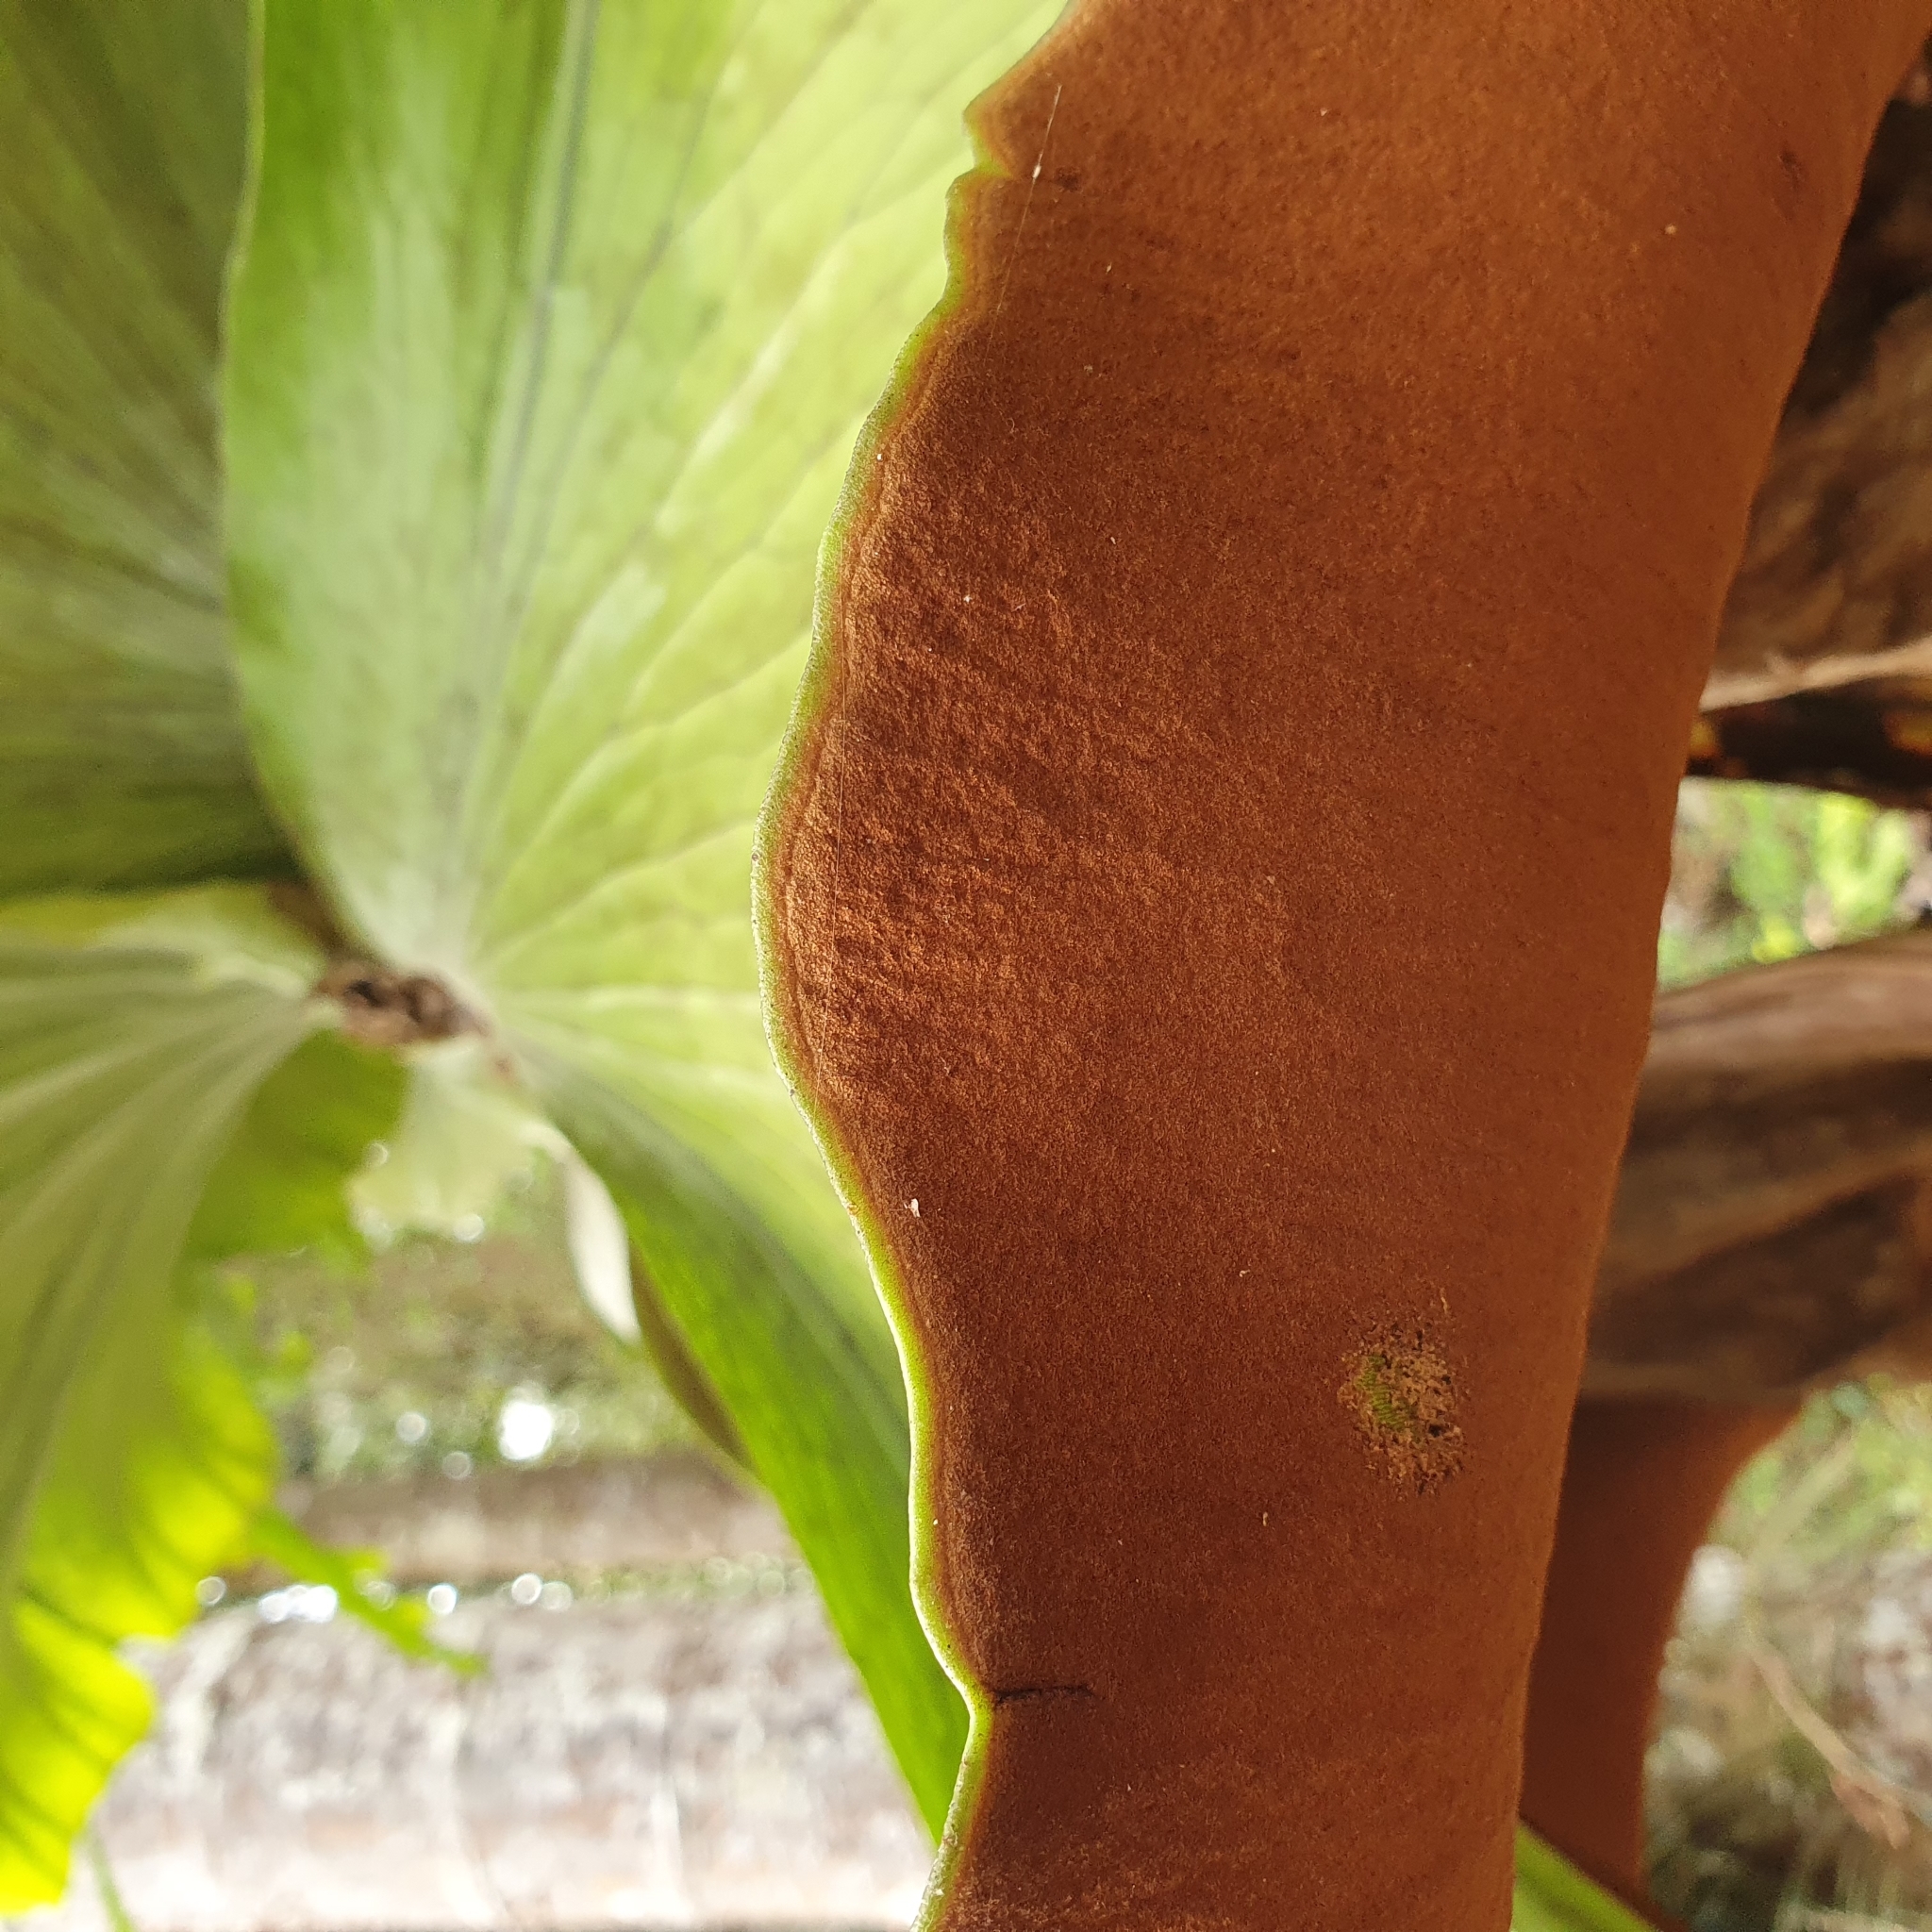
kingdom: Plantae
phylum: Tracheophyta
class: Polypodiopsida
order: Polypodiales
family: Polypodiaceae
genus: Platycerium
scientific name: Platycerium superbum
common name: Staghorn fern
